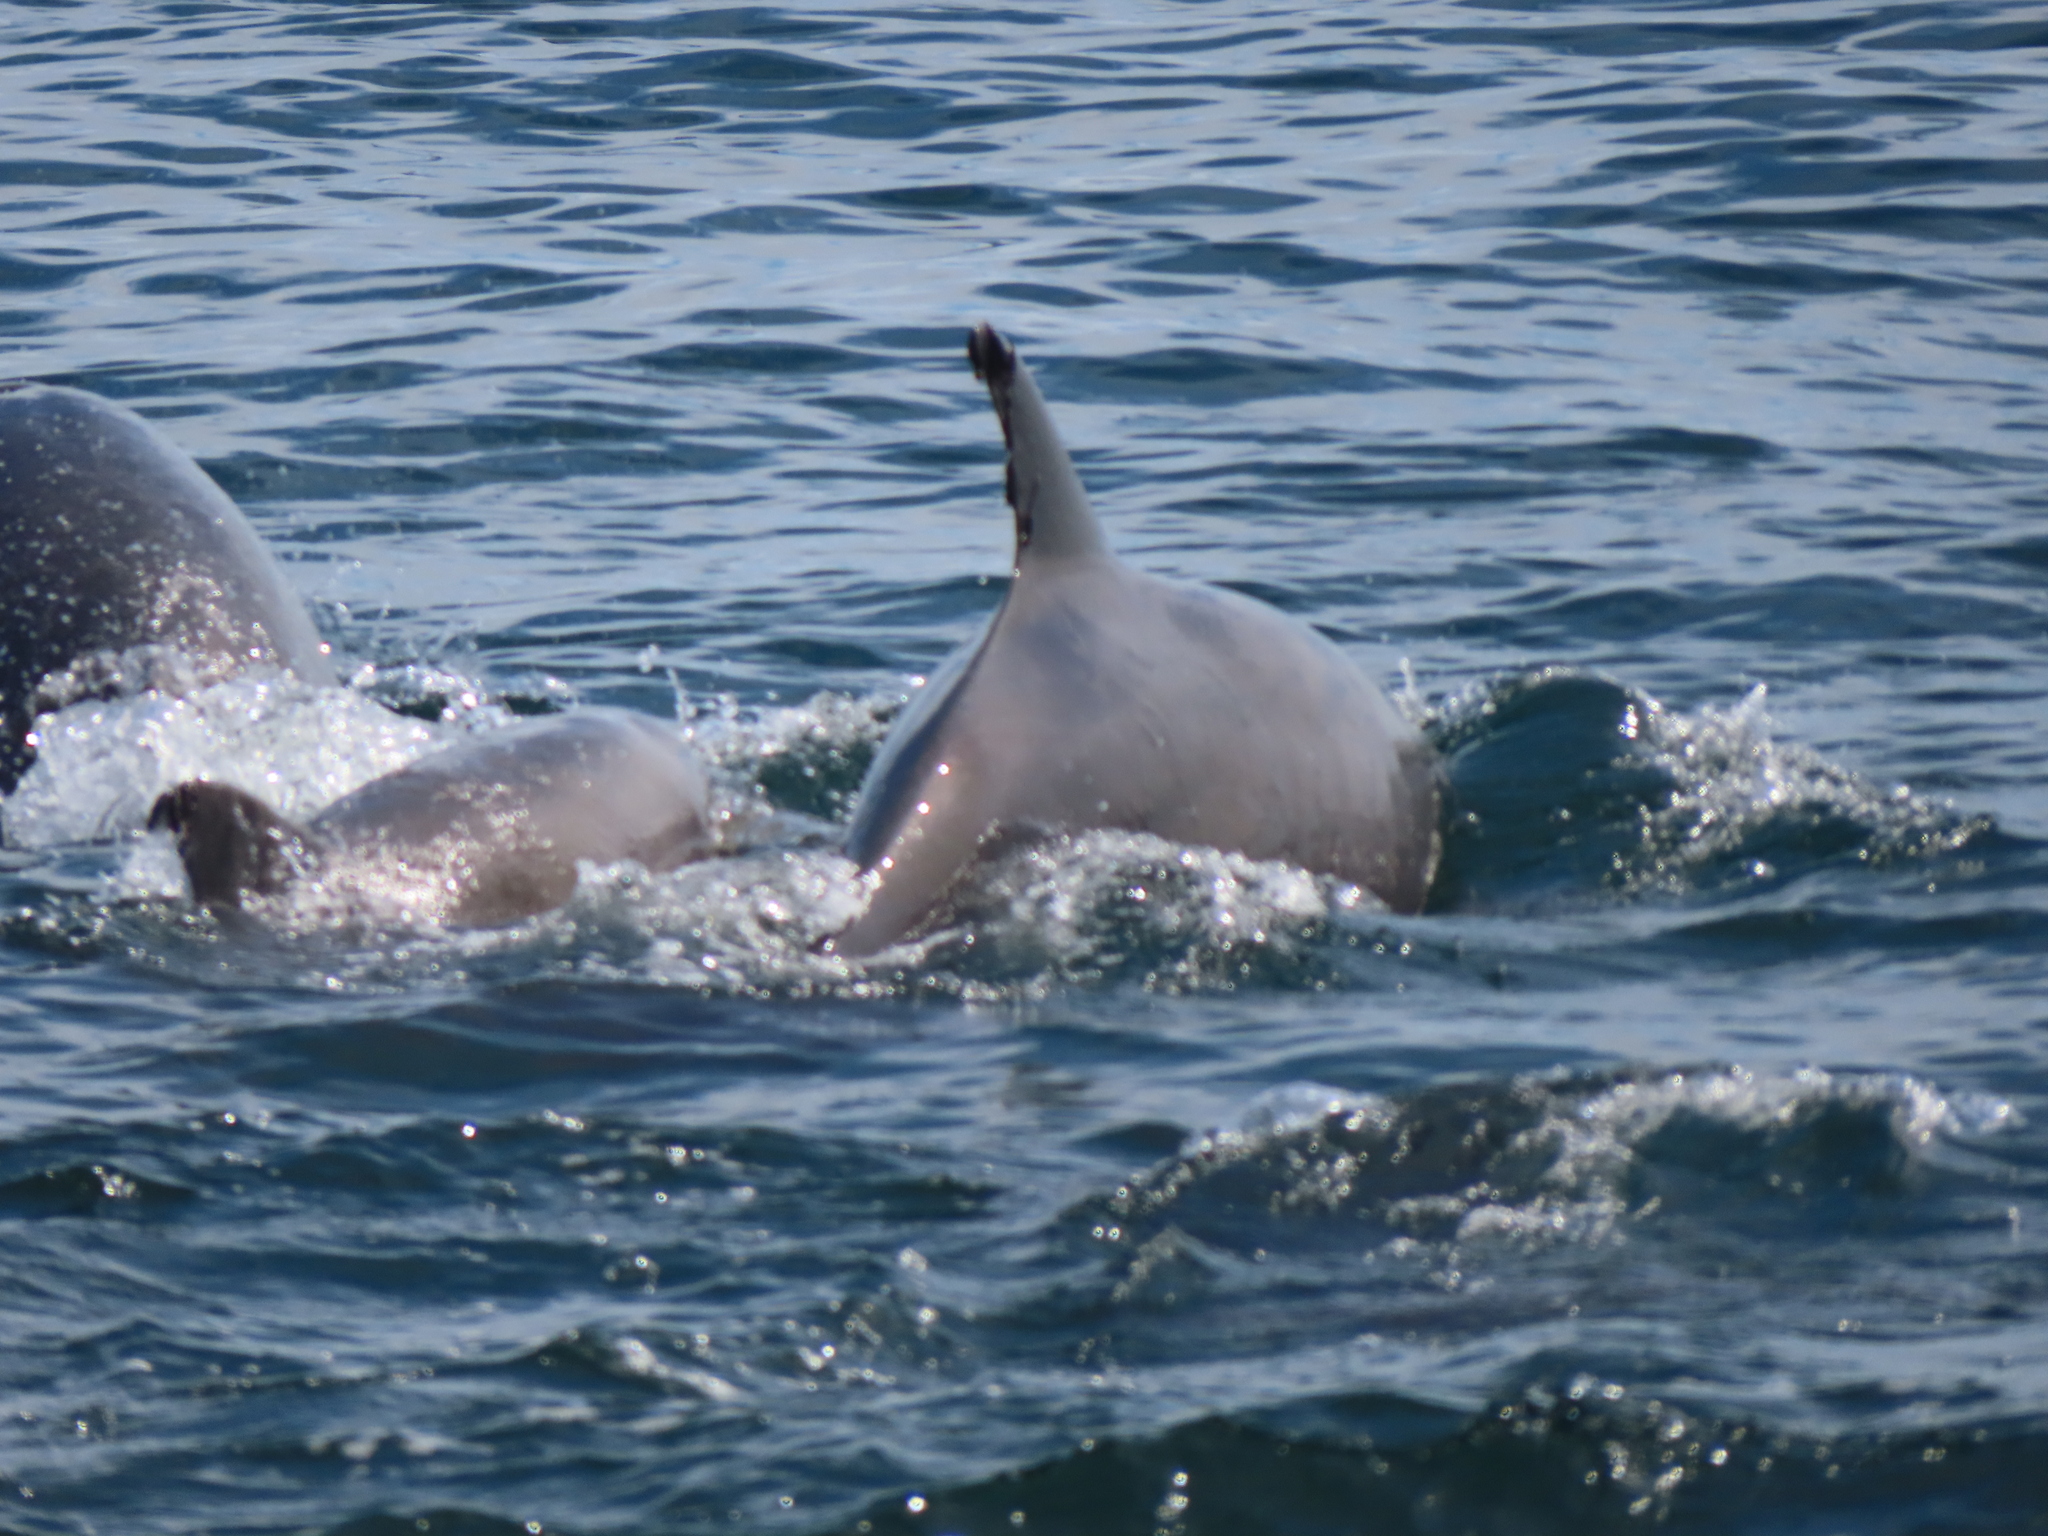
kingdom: Animalia
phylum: Chordata
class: Mammalia
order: Cetacea
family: Delphinidae
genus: Tursiops
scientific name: Tursiops truncatus
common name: Bottlenose dolphin
